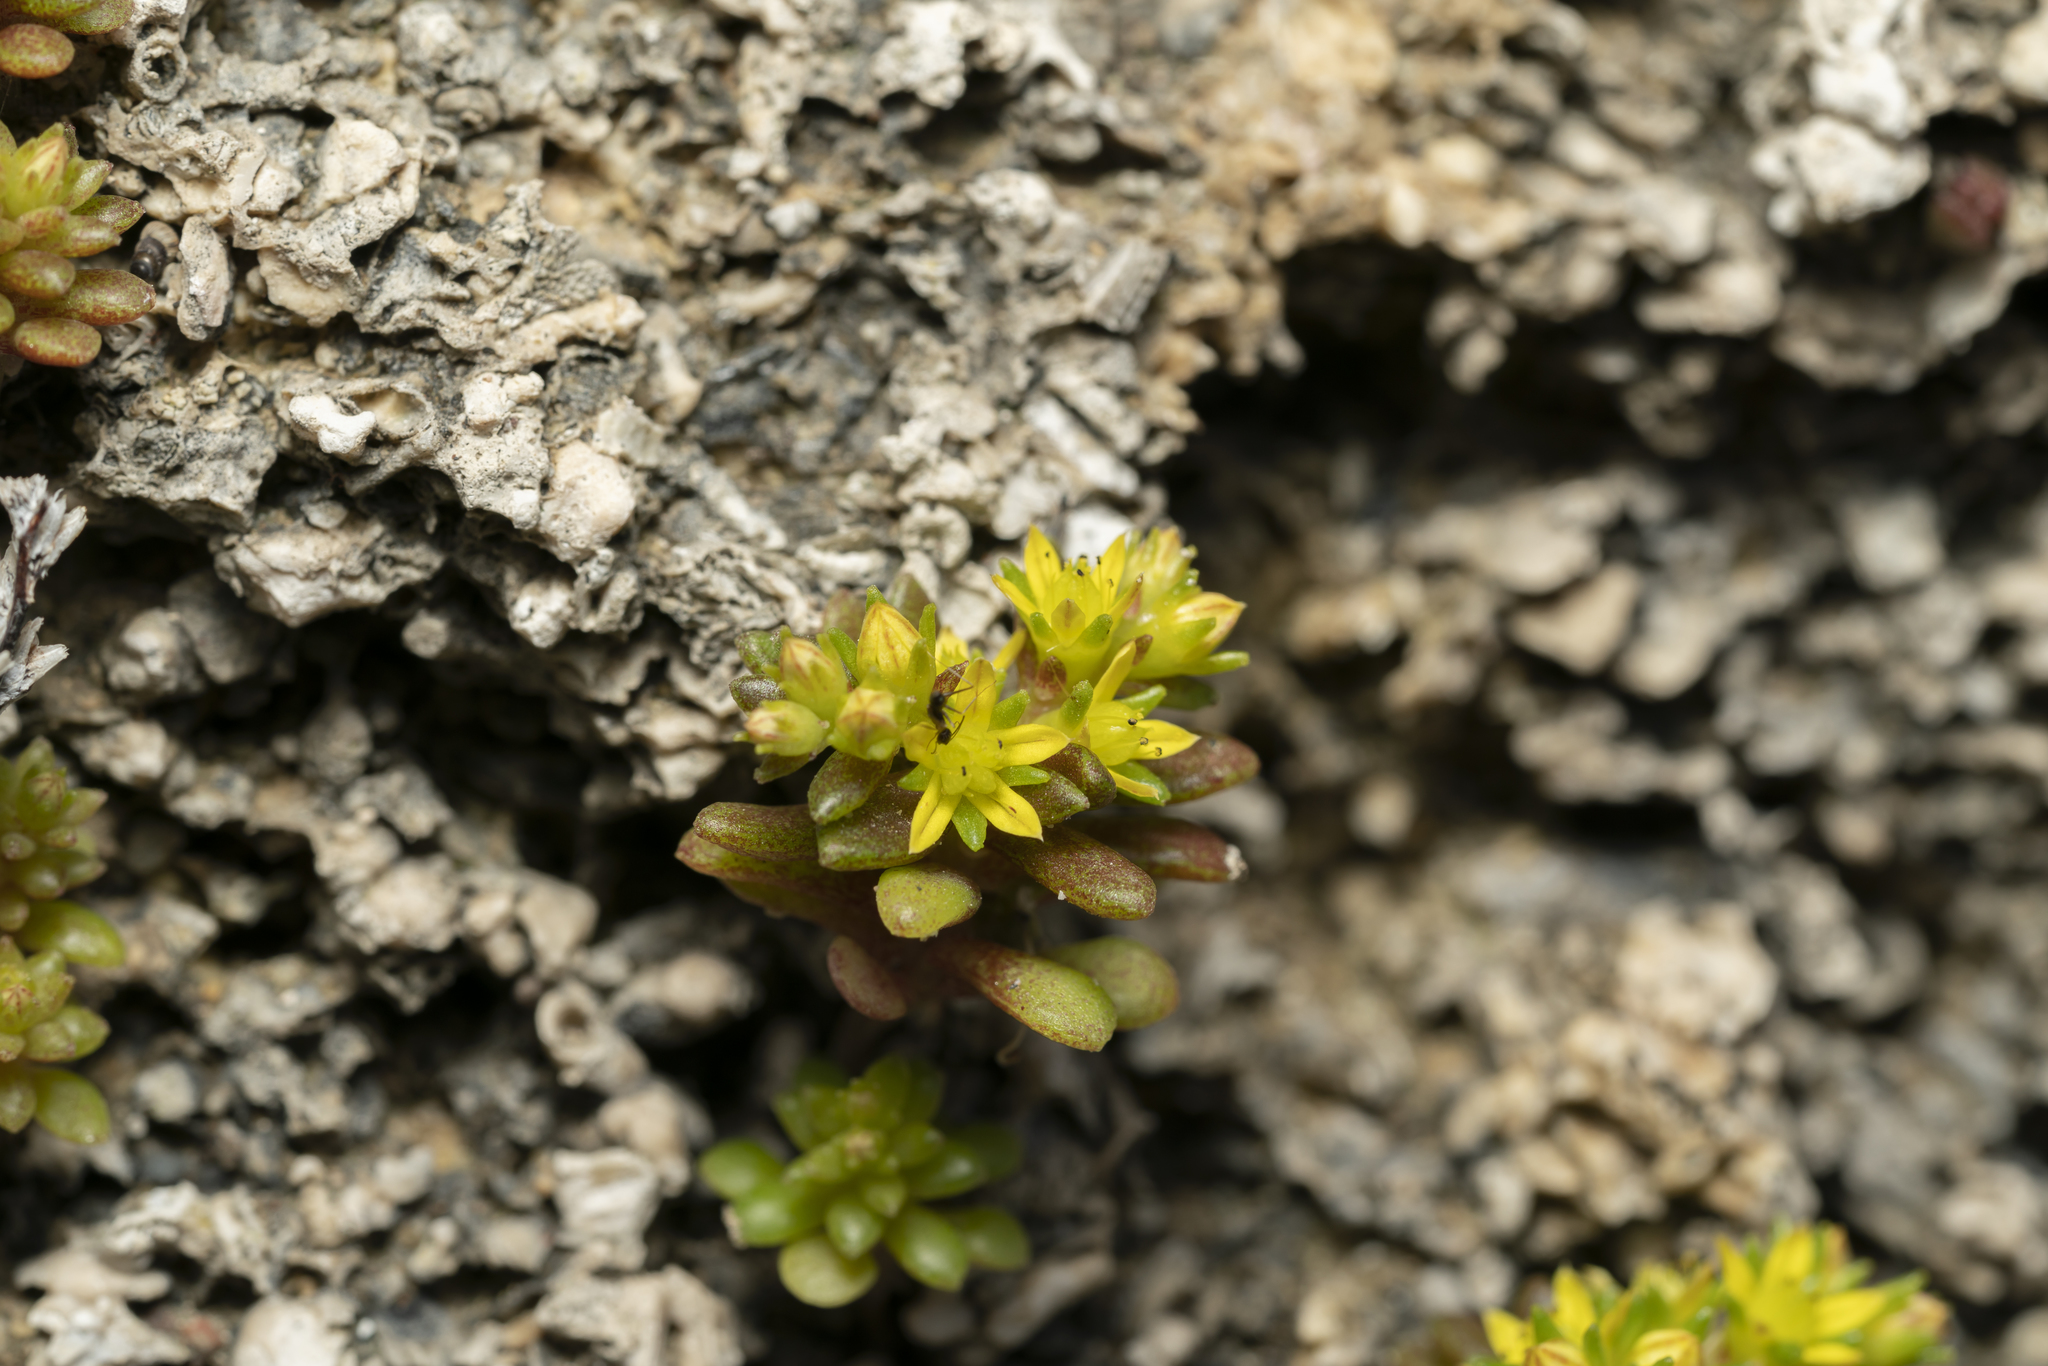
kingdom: Plantae
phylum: Tracheophyta
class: Magnoliopsida
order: Saxifragales
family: Crassulaceae
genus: Sedum
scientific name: Sedum litoreum
